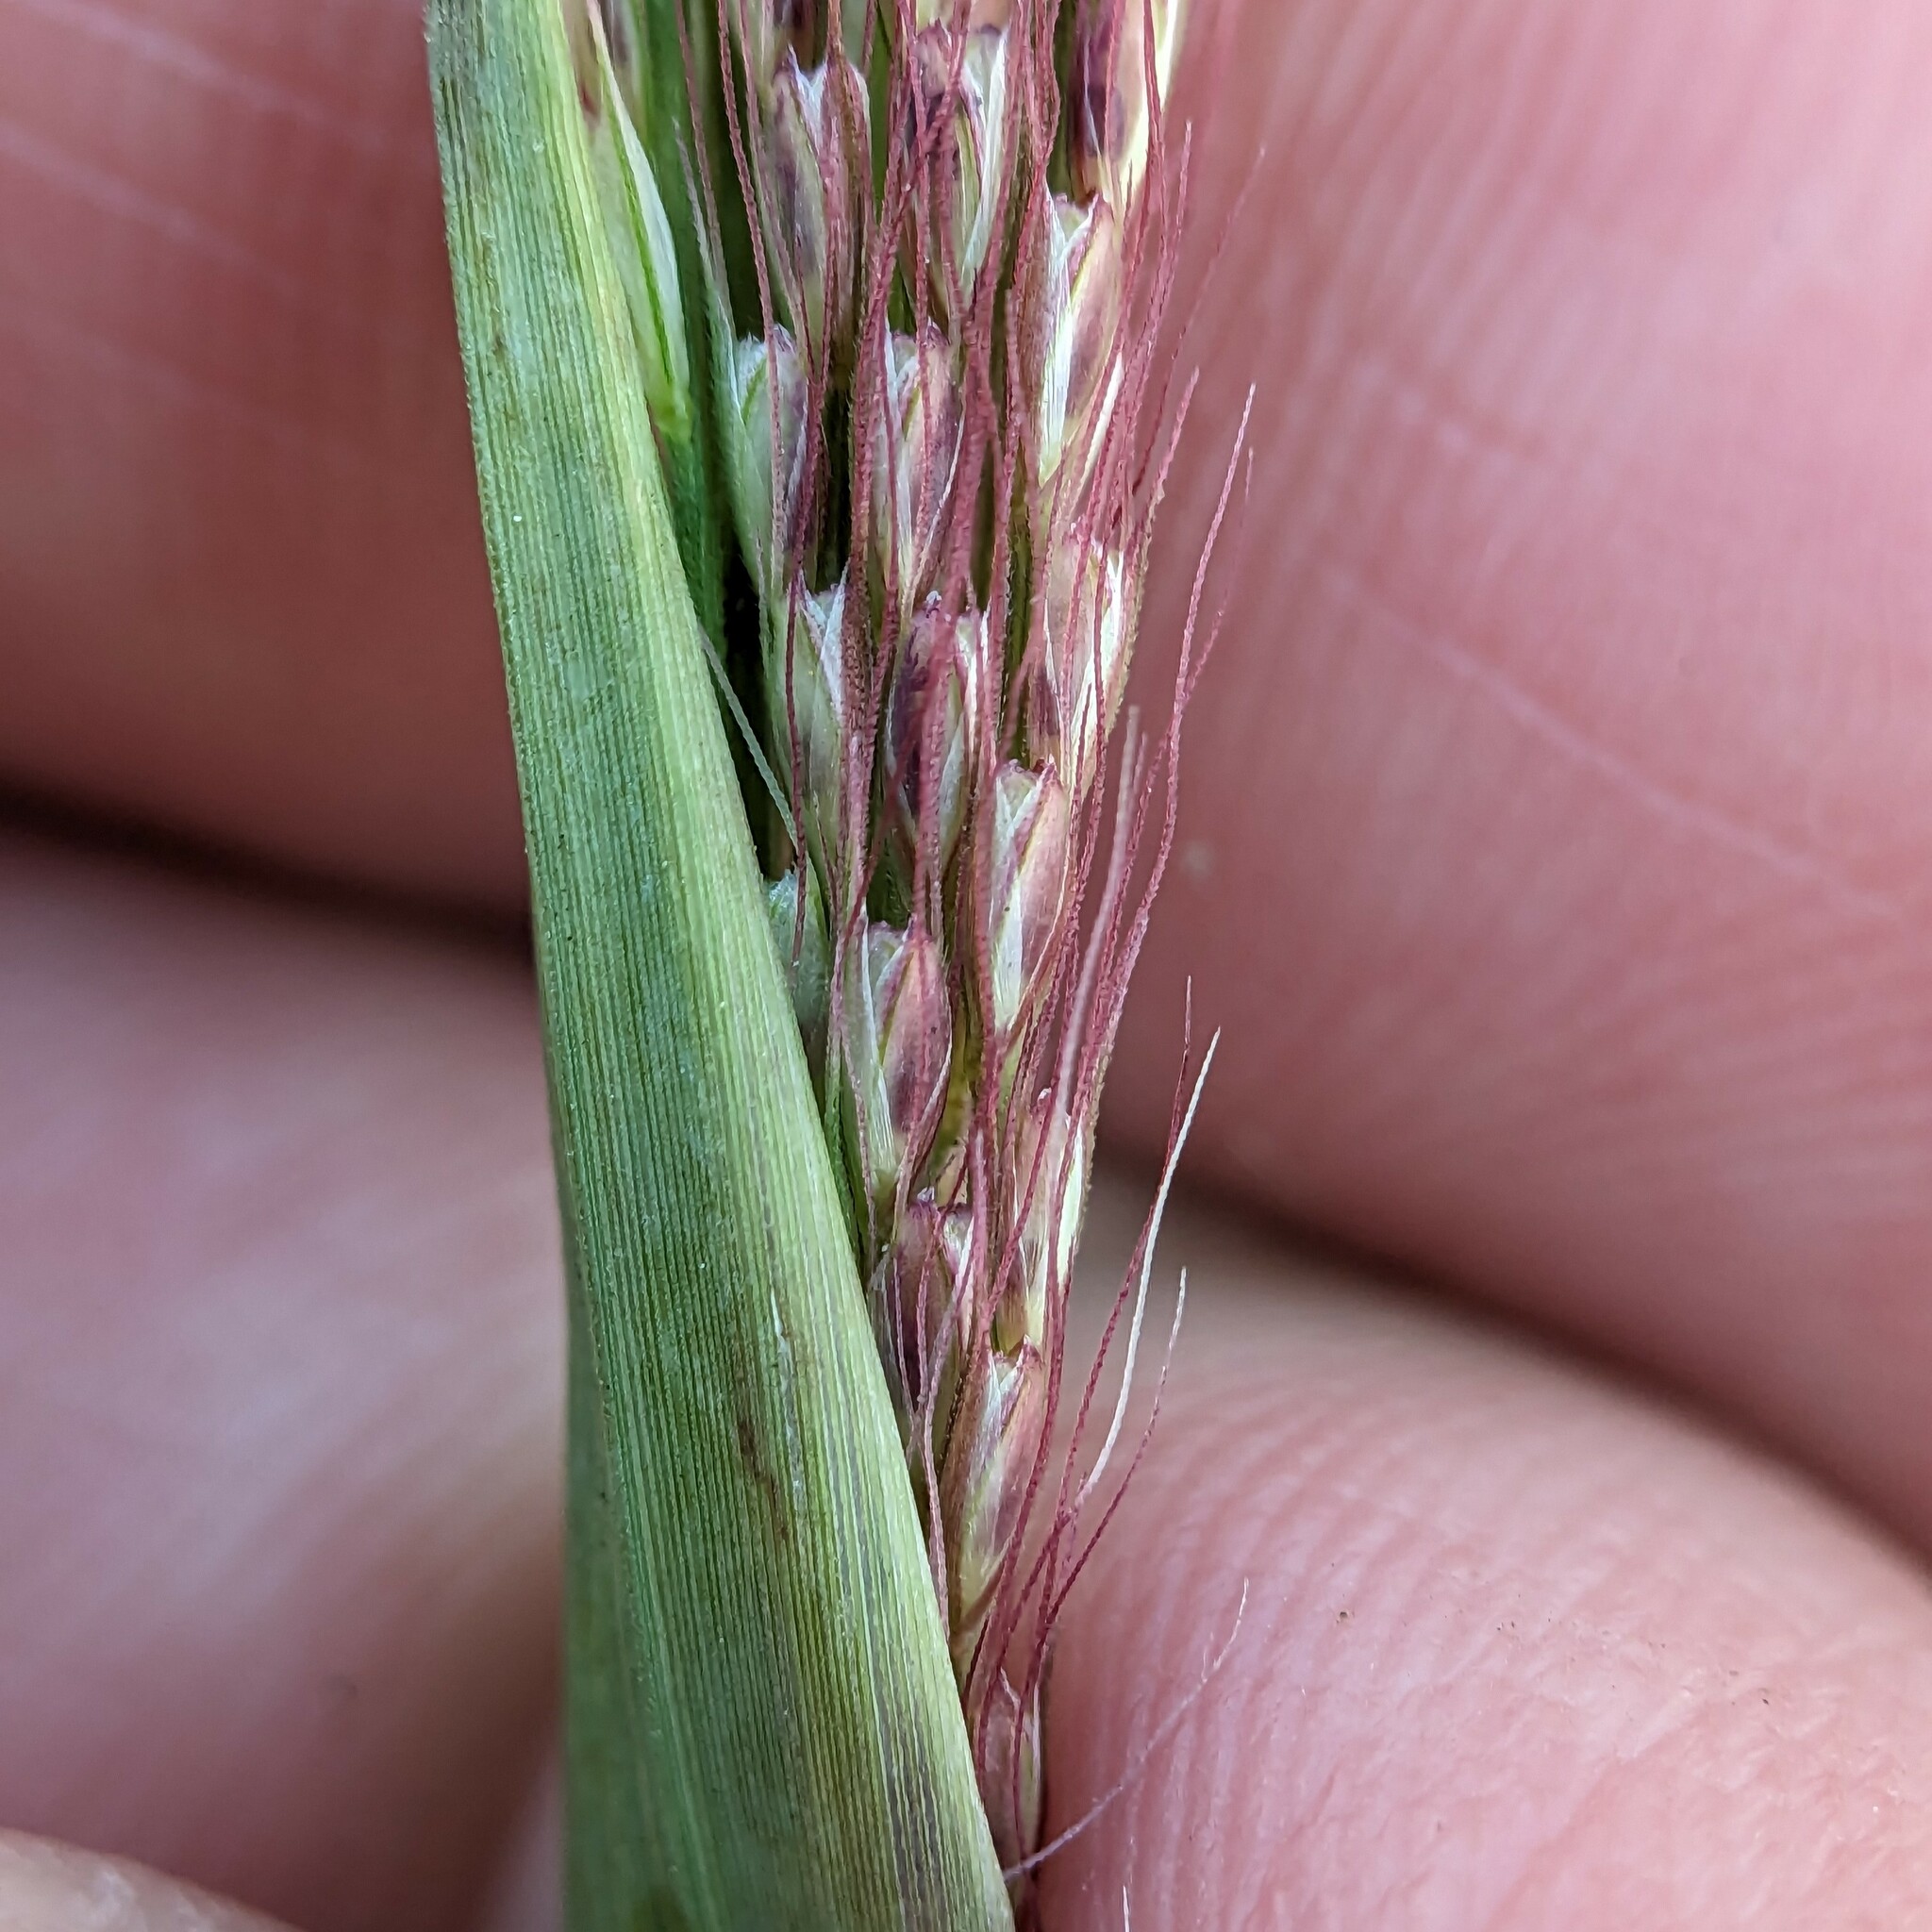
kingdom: Plantae
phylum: Tracheophyta
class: Liliopsida
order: Poales
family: Poaceae
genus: Chloris
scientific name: Chloris verticillata
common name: Tumble windmill grass
